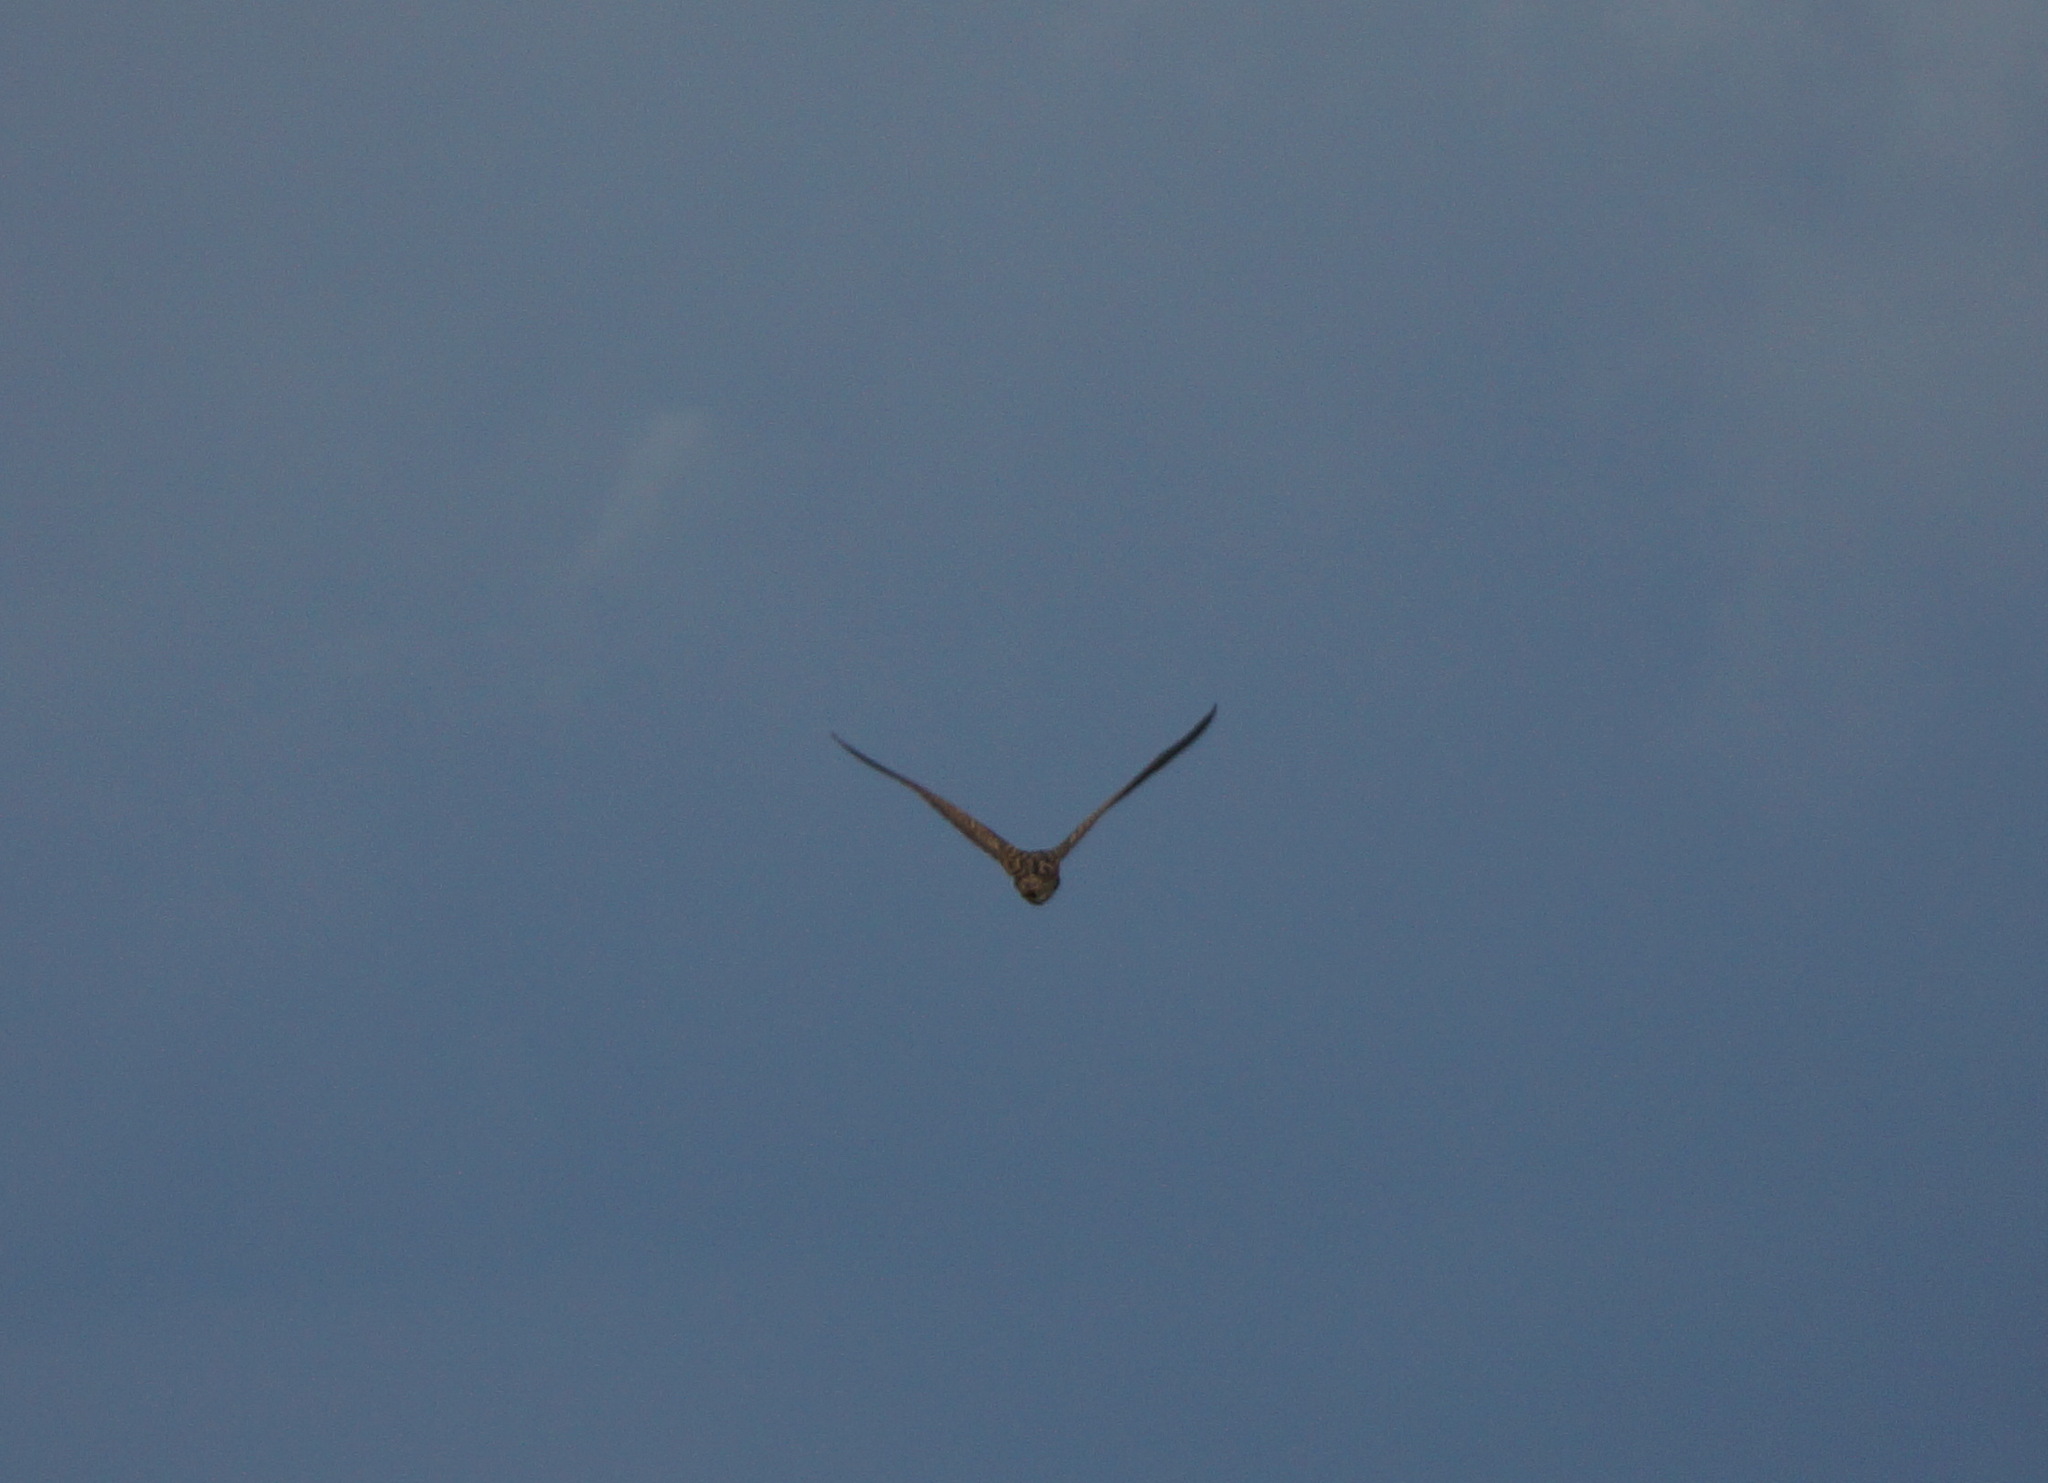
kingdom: Animalia
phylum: Chordata
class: Aves
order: Pelecaniformes
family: Ardeidae
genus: Botaurus
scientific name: Botaurus stellaris
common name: Eurasian bittern
